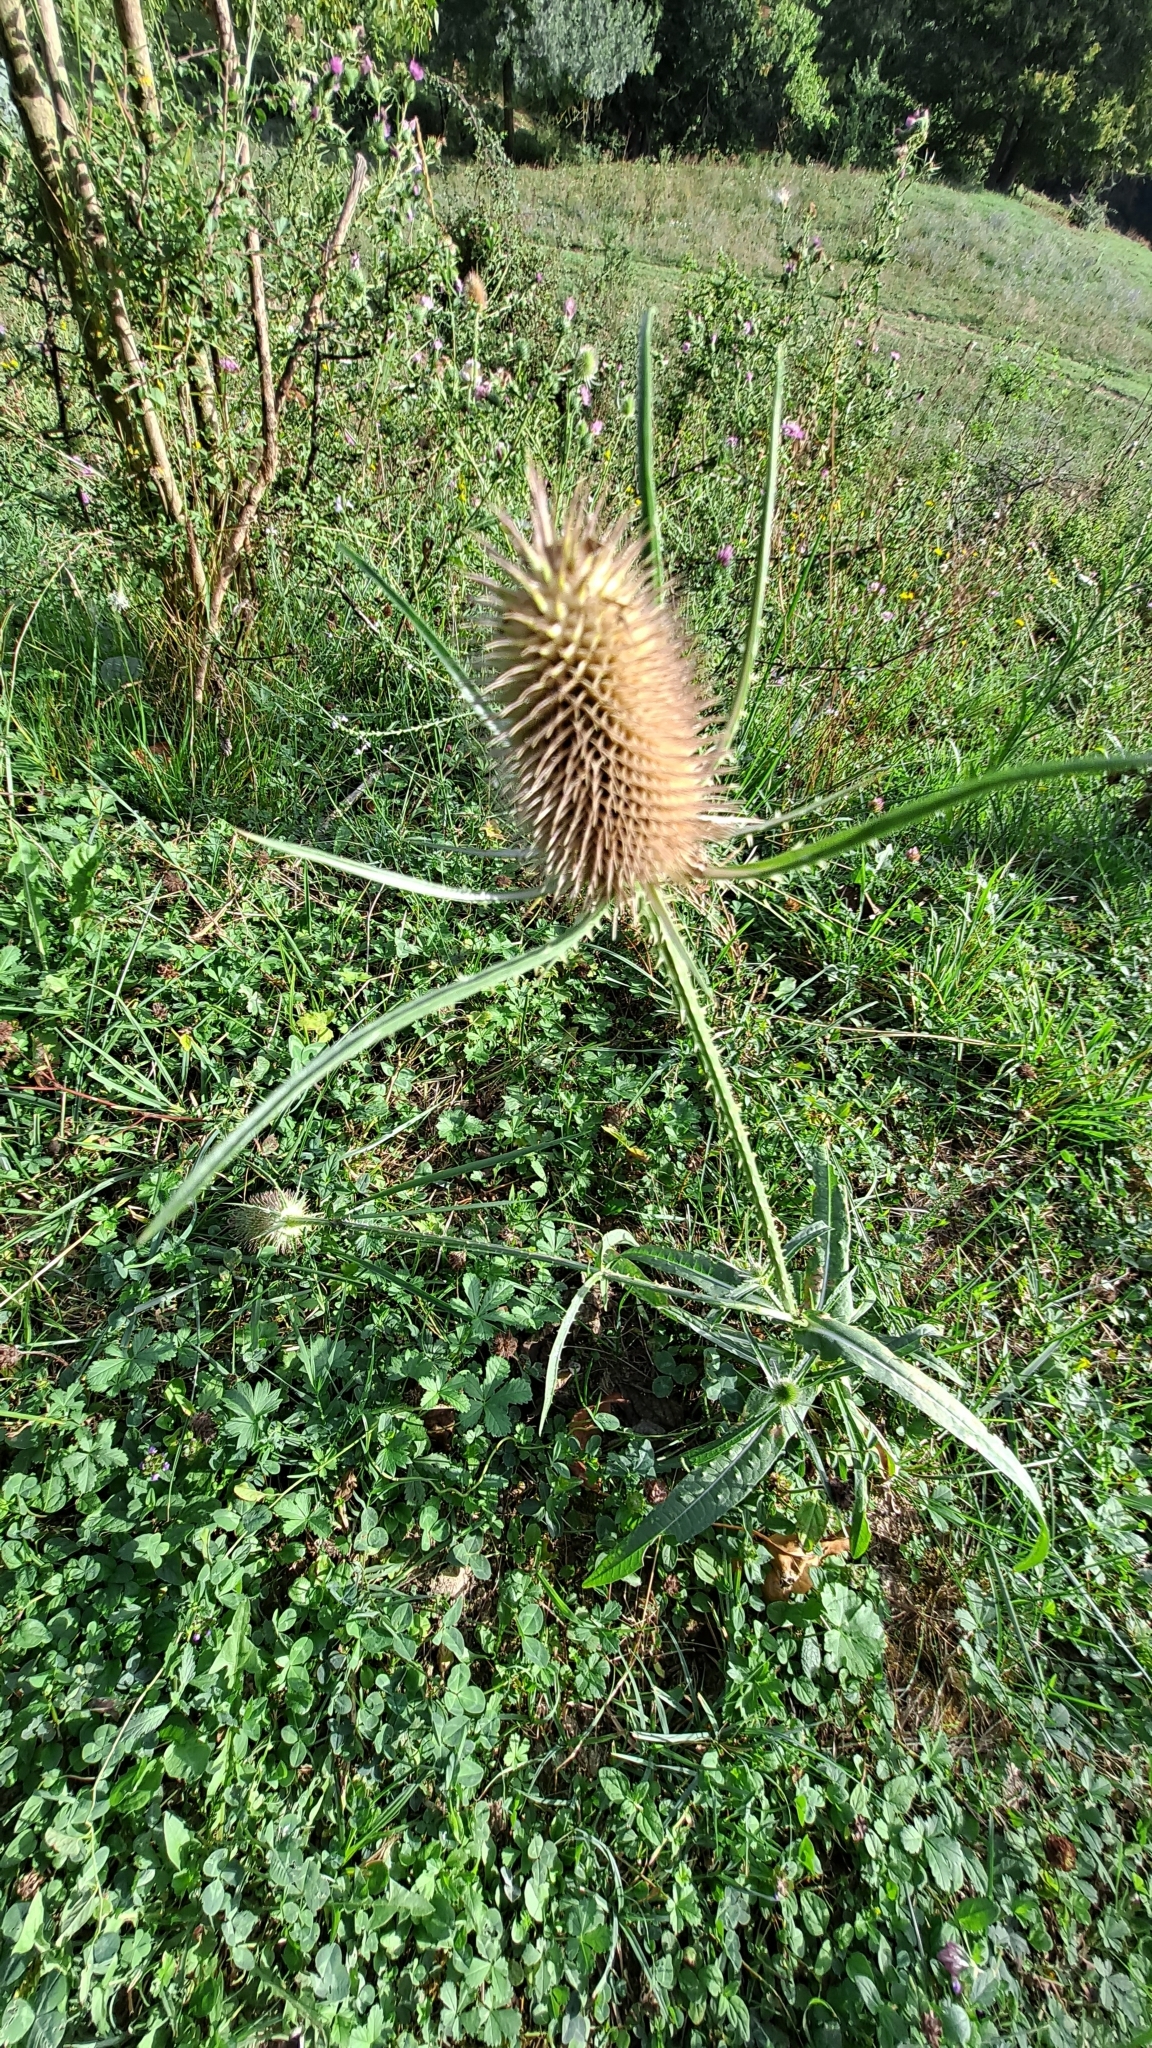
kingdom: Plantae
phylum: Tracheophyta
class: Magnoliopsida
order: Dipsacales
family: Caprifoliaceae
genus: Dipsacus
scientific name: Dipsacus fullonum
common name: Teasel
